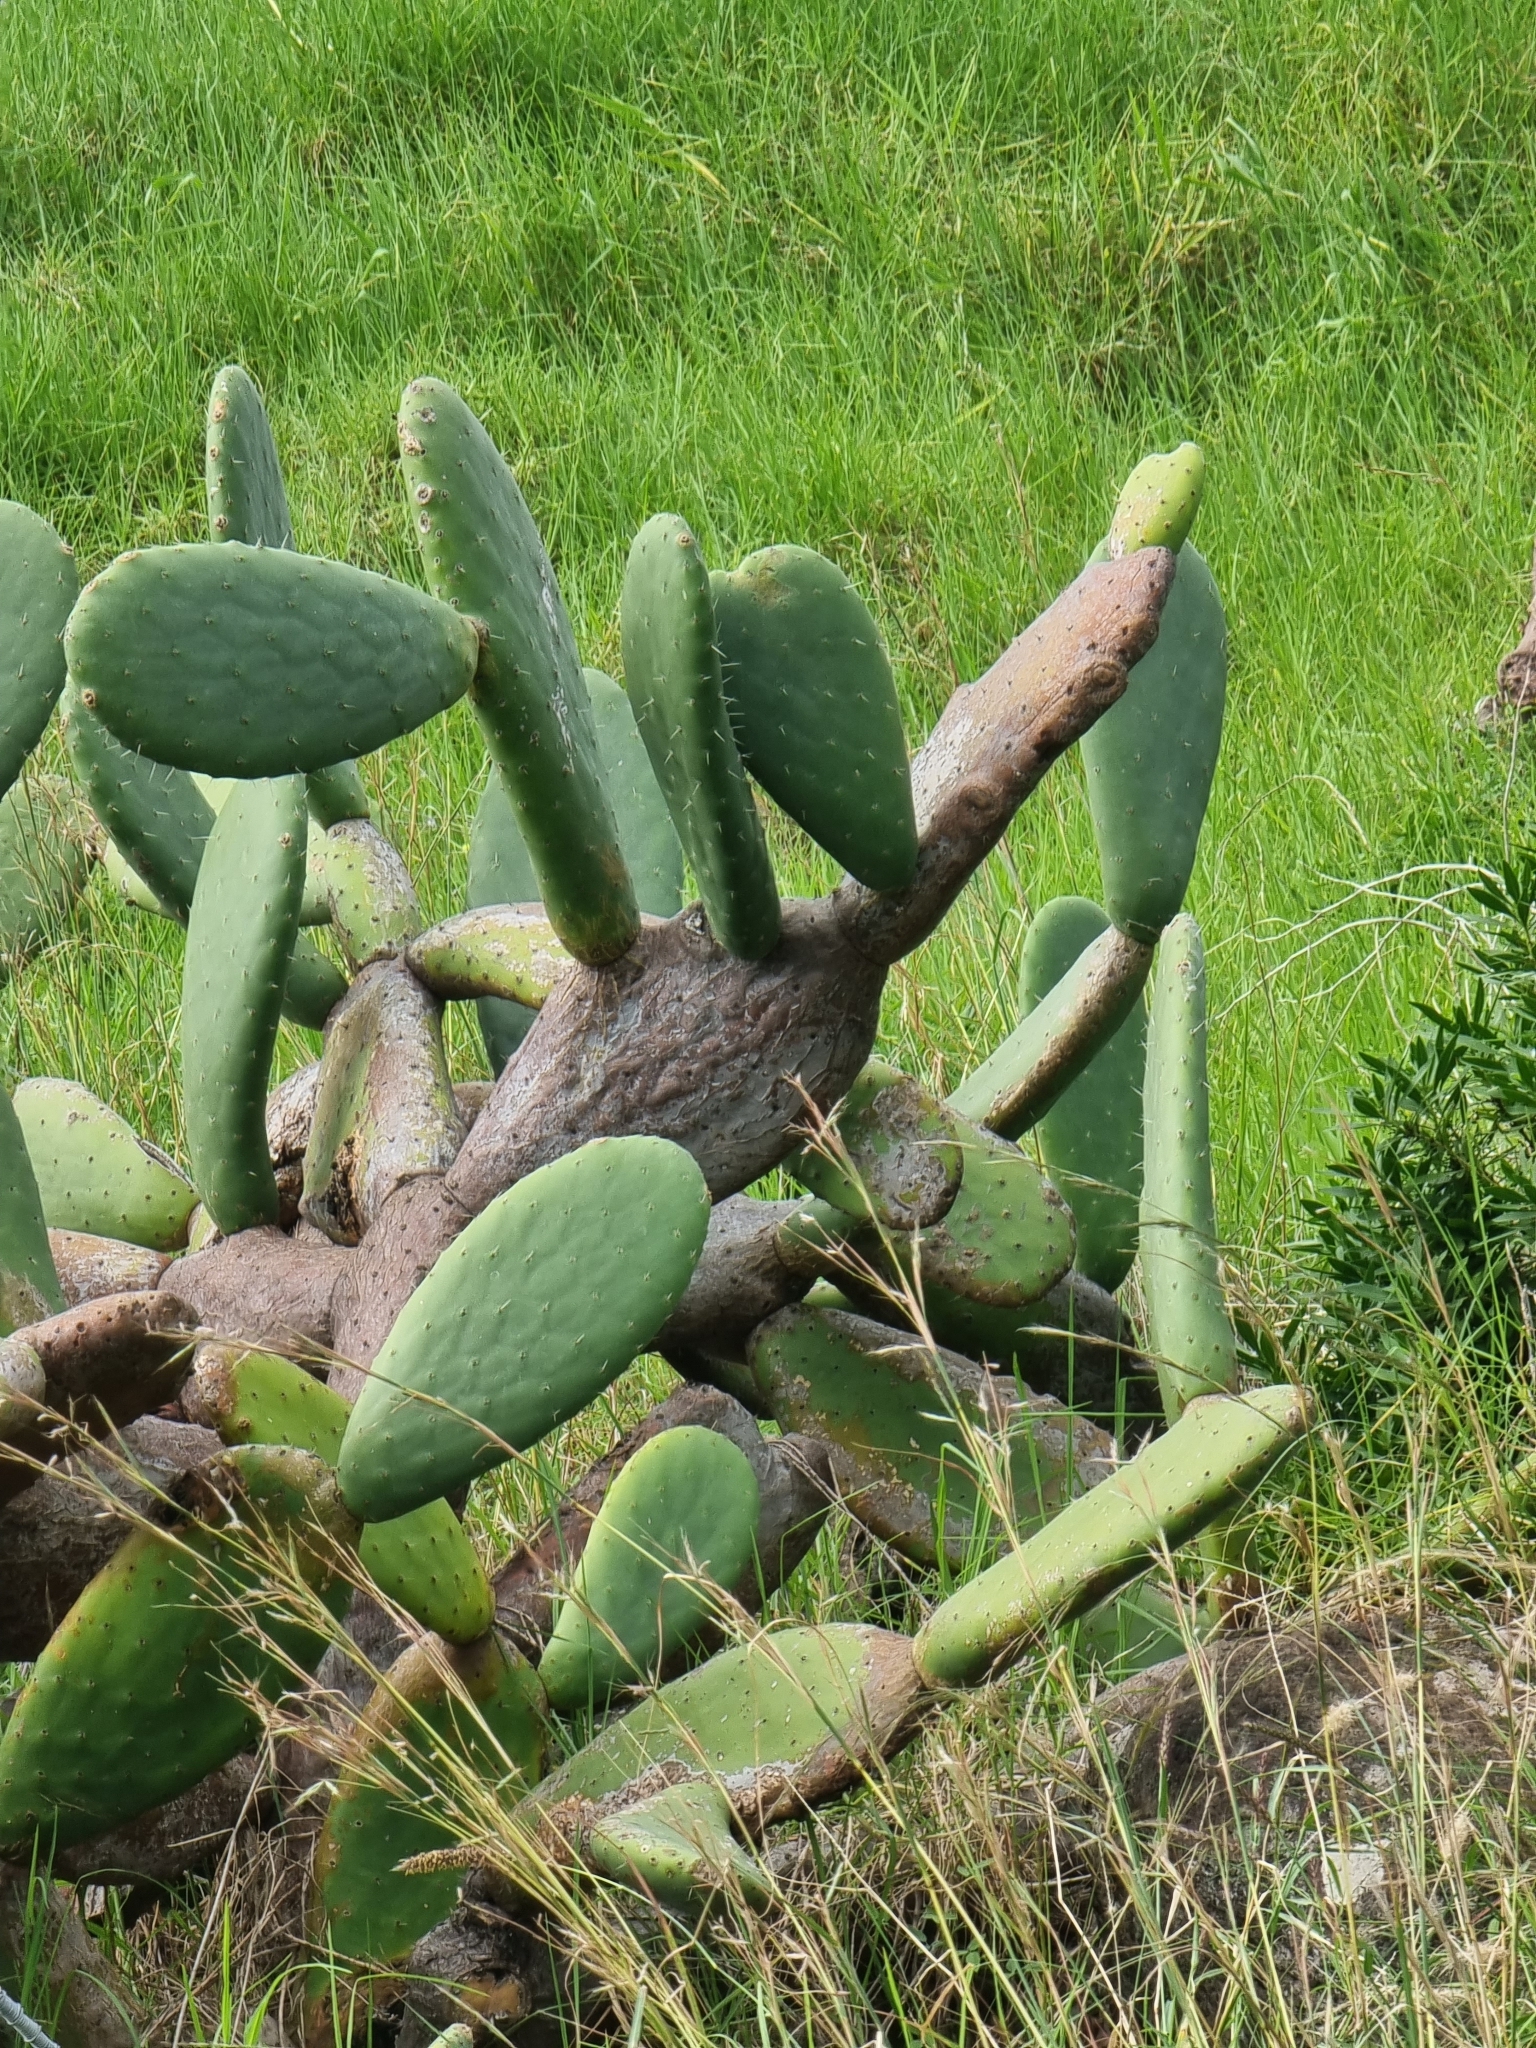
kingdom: Plantae
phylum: Tracheophyta
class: Magnoliopsida
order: Caryophyllales
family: Cactaceae
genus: Opuntia
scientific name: Opuntia ficus-indica
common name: Barbary fig
